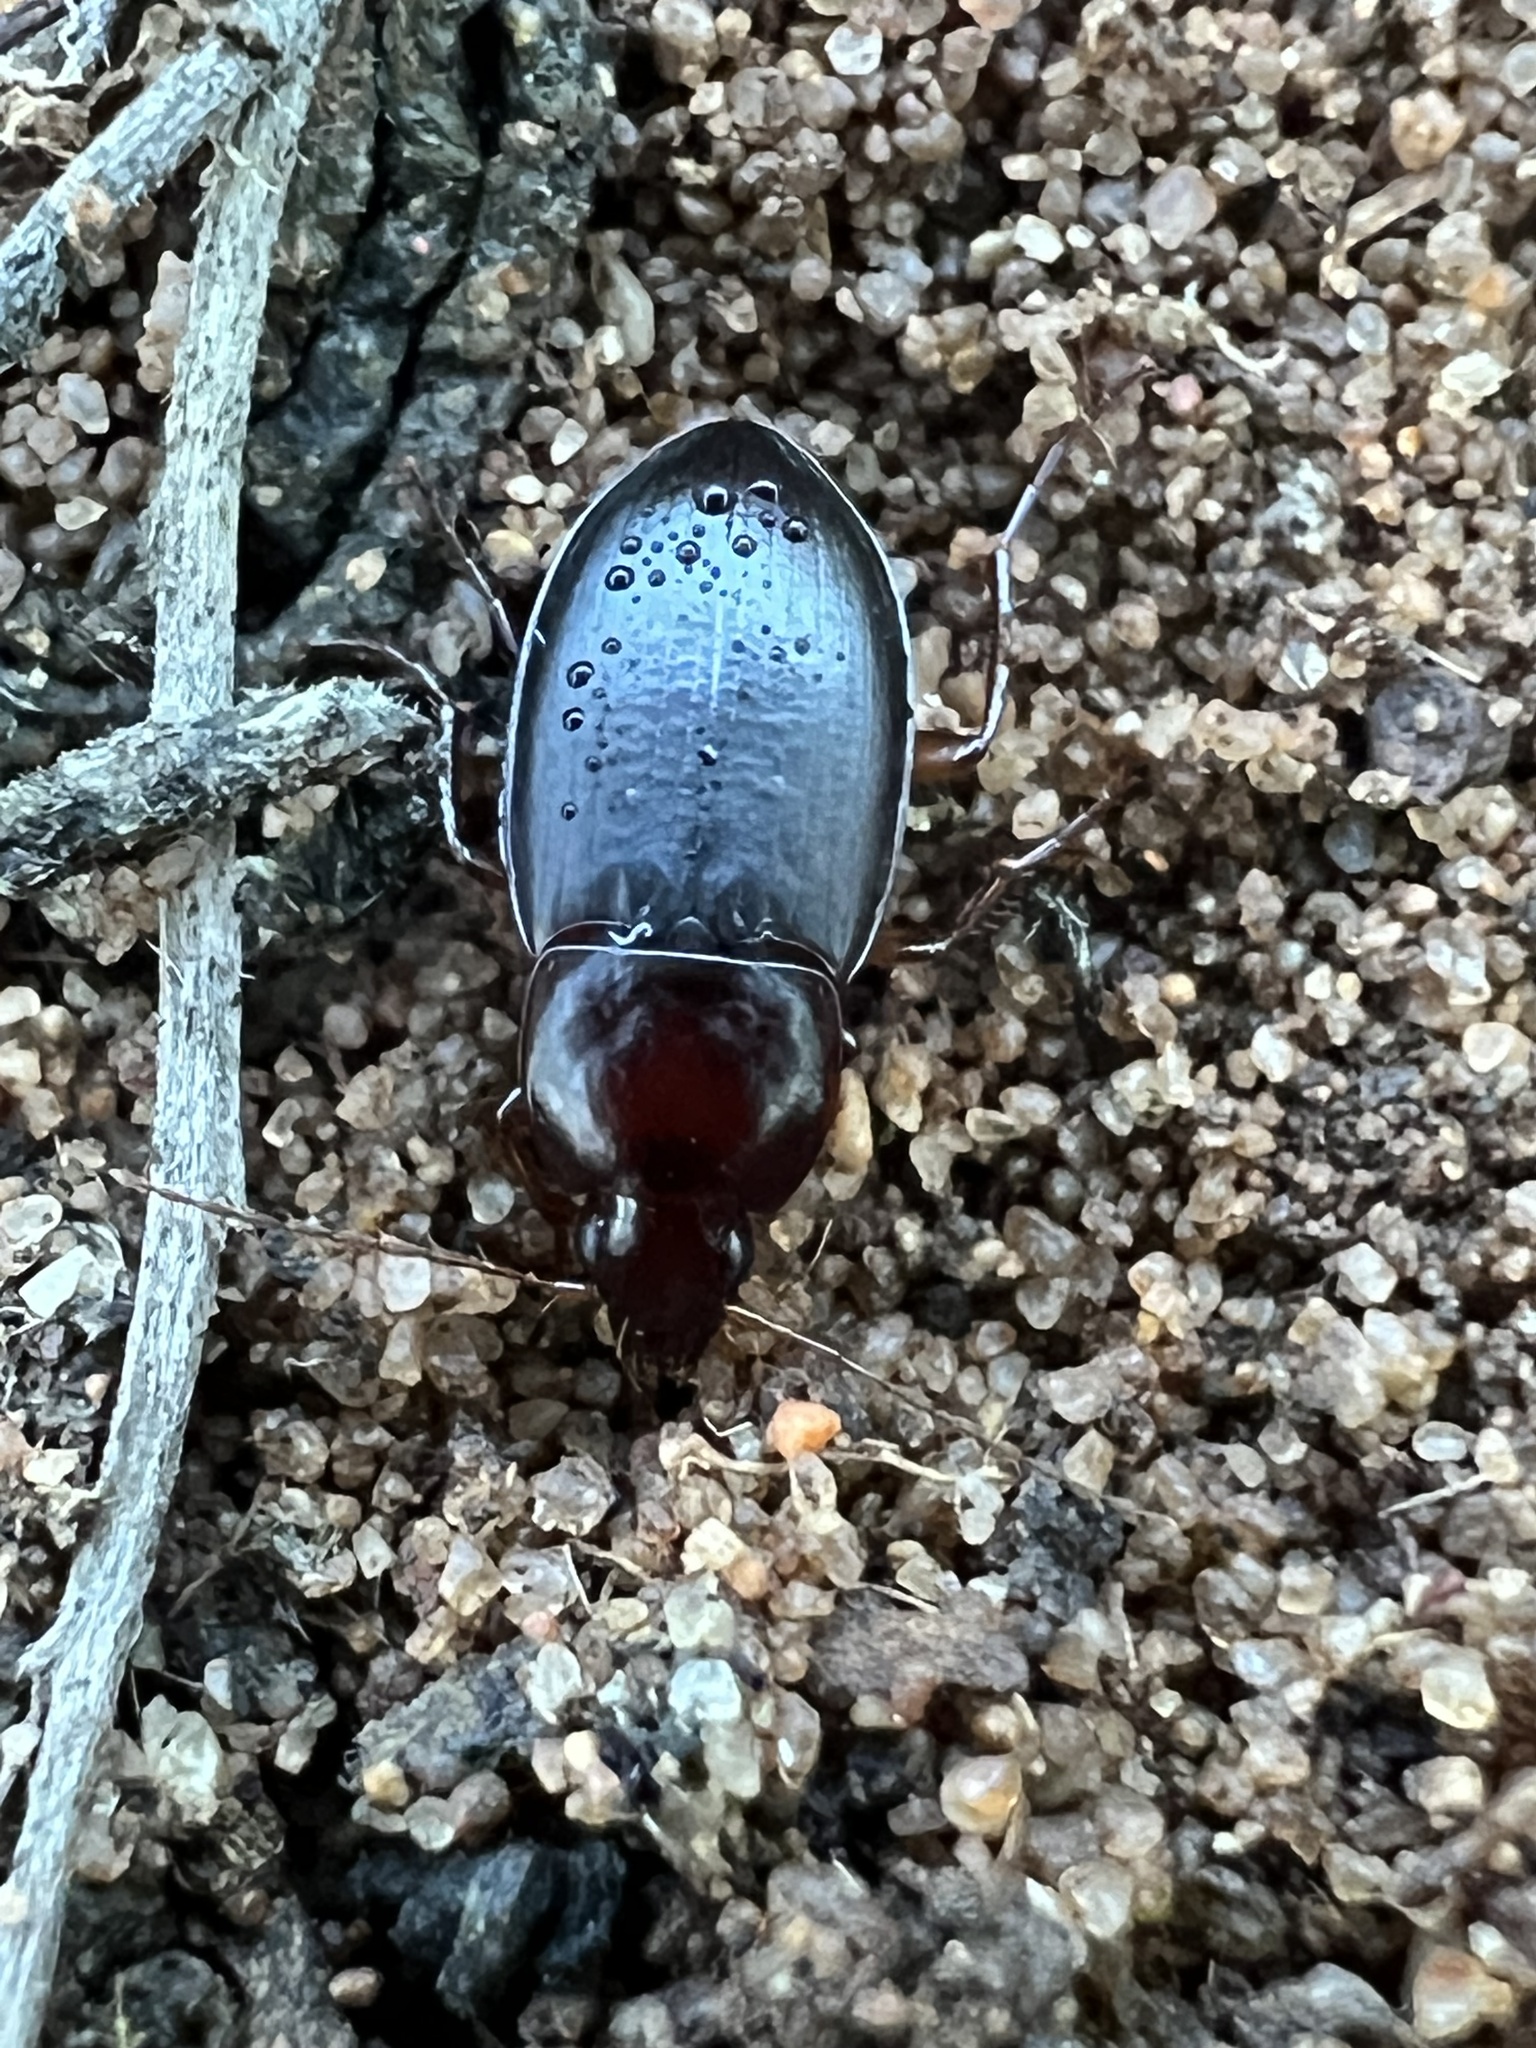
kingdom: Animalia
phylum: Arthropoda
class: Insecta
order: Coleoptera
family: Carabidae
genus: Calathus
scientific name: Calathus ruficollis
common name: Red-collared harp ground beetle
